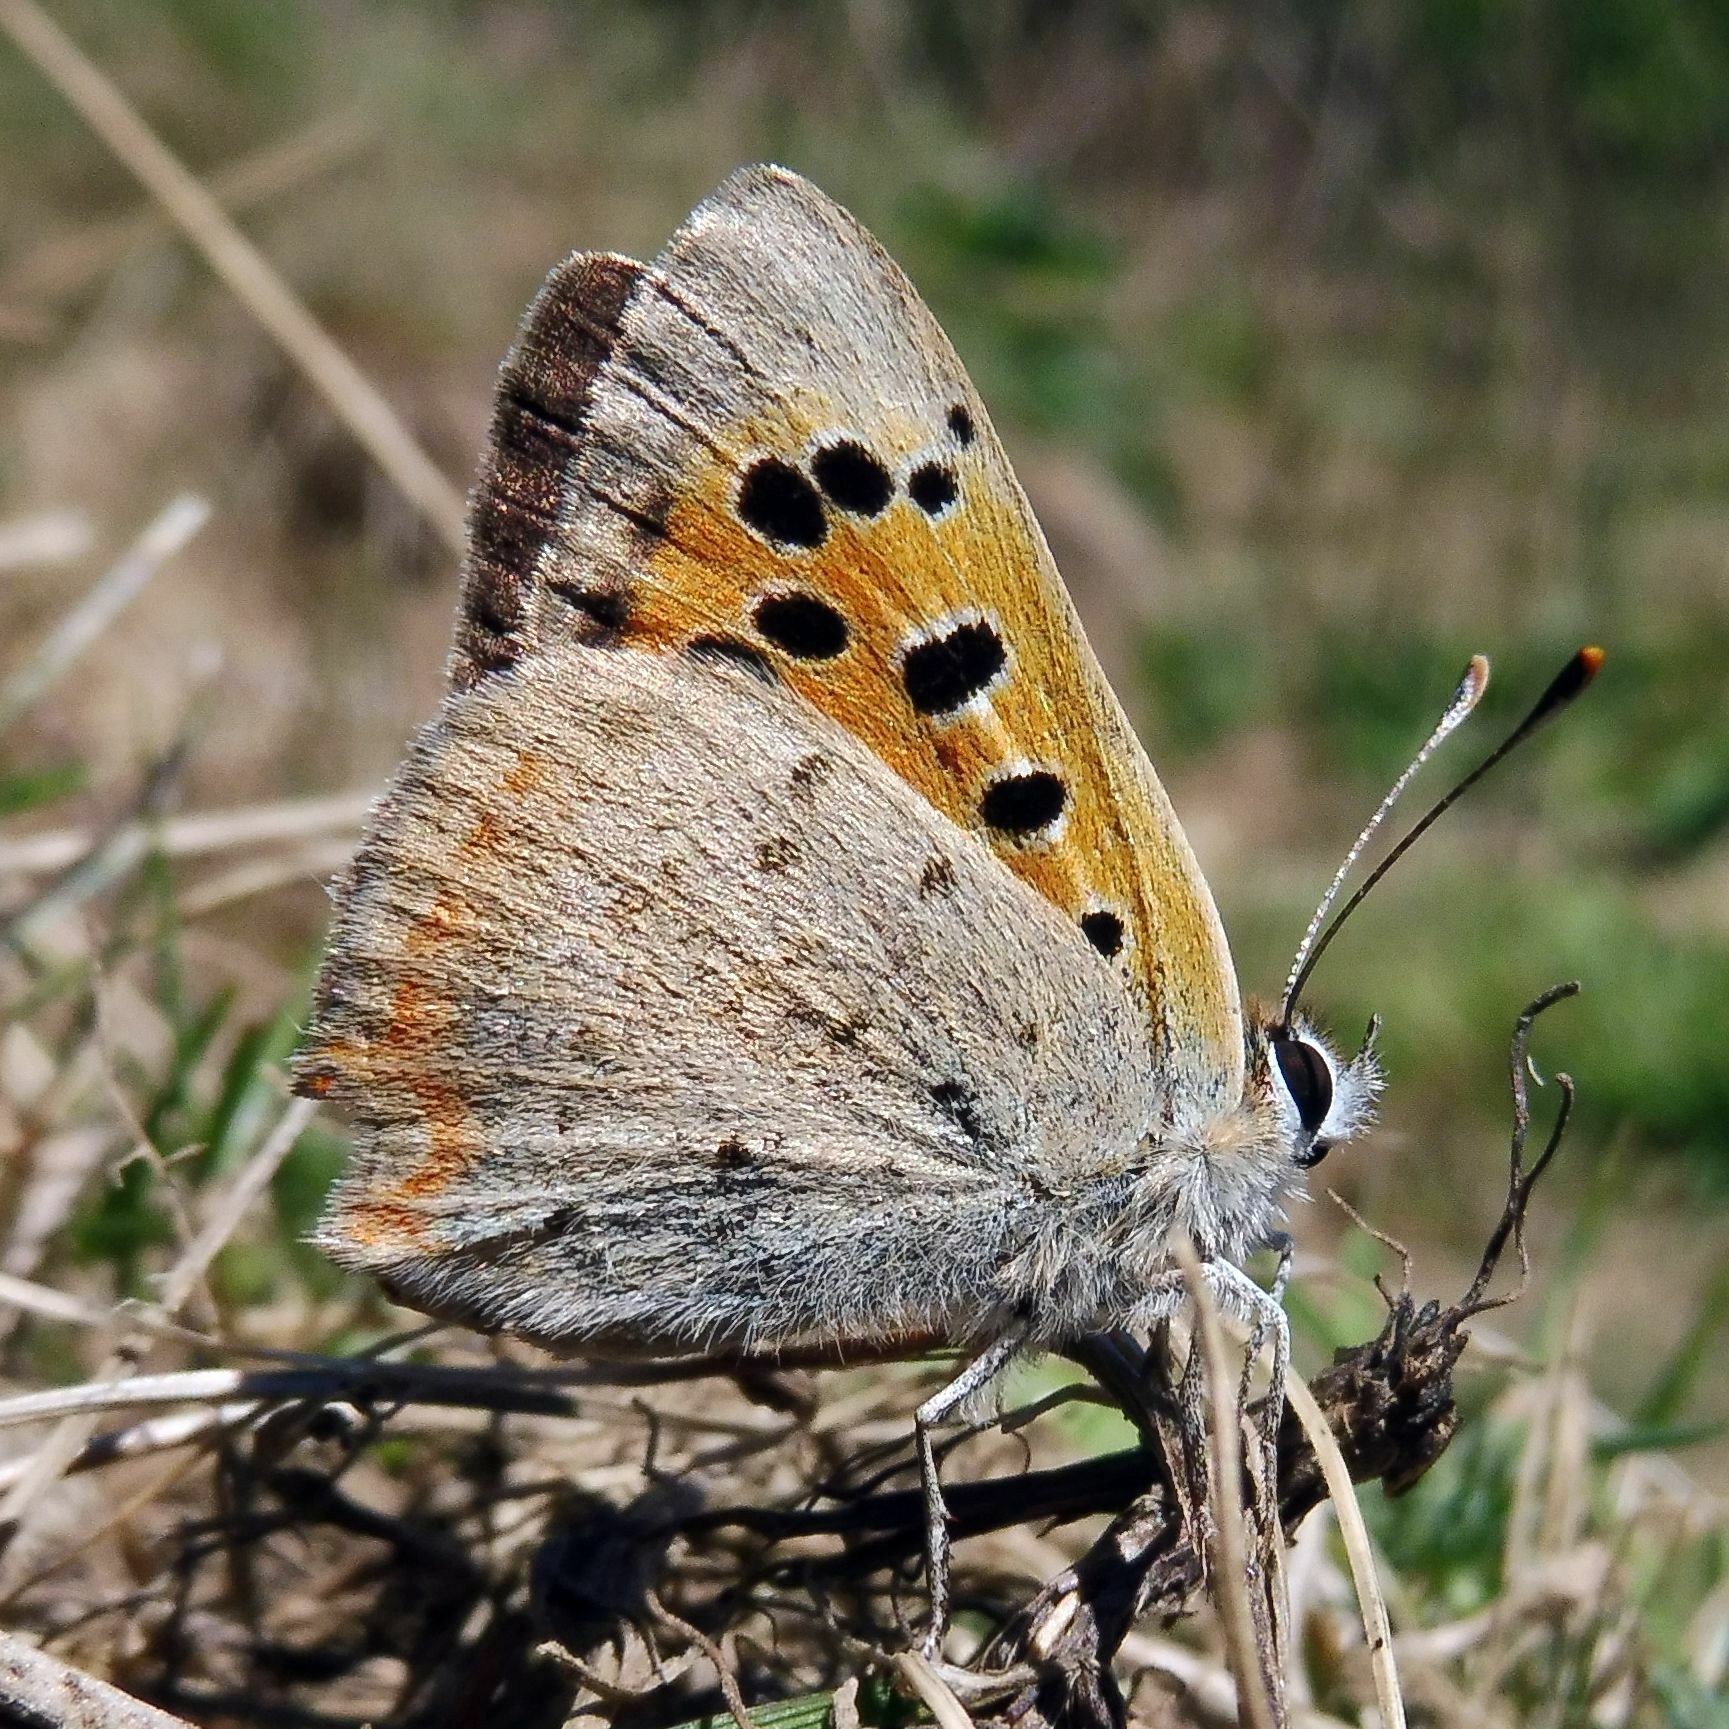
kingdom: Animalia
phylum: Arthropoda
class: Insecta
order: Lepidoptera
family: Lycaenidae
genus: Lycaena
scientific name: Lycaena phlaeas
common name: Small copper
